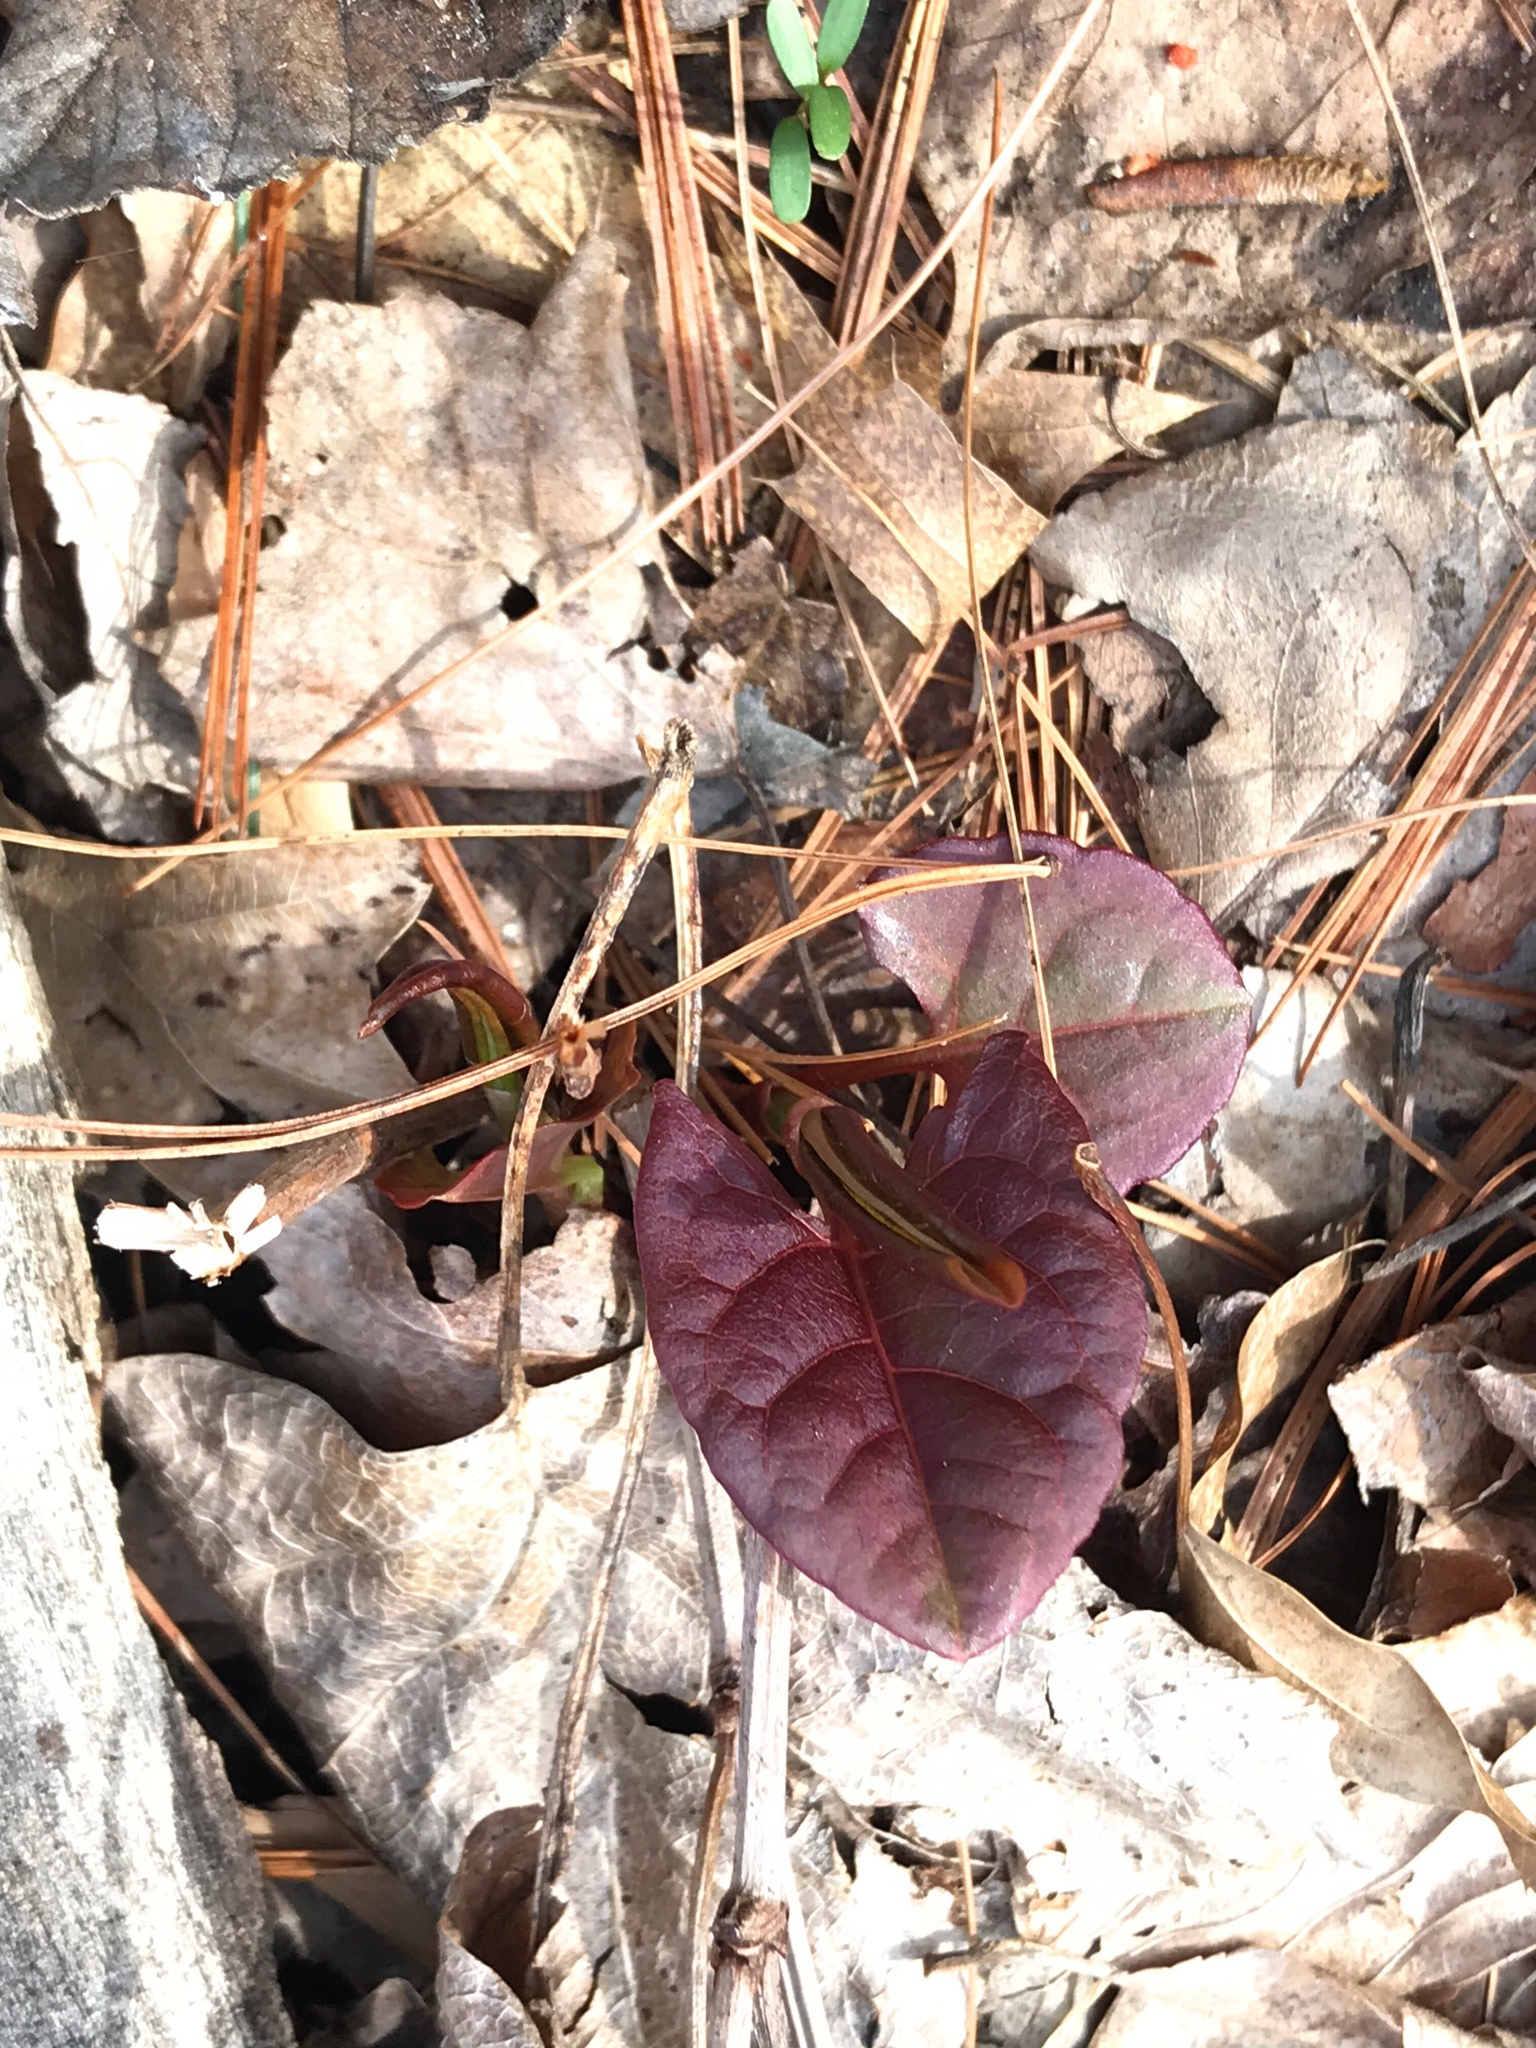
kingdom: Plantae
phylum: Tracheophyta
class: Magnoliopsida
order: Caryophyllales
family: Polygonaceae
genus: Reynoutria
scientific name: Reynoutria japonica
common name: Japanese knotweed
